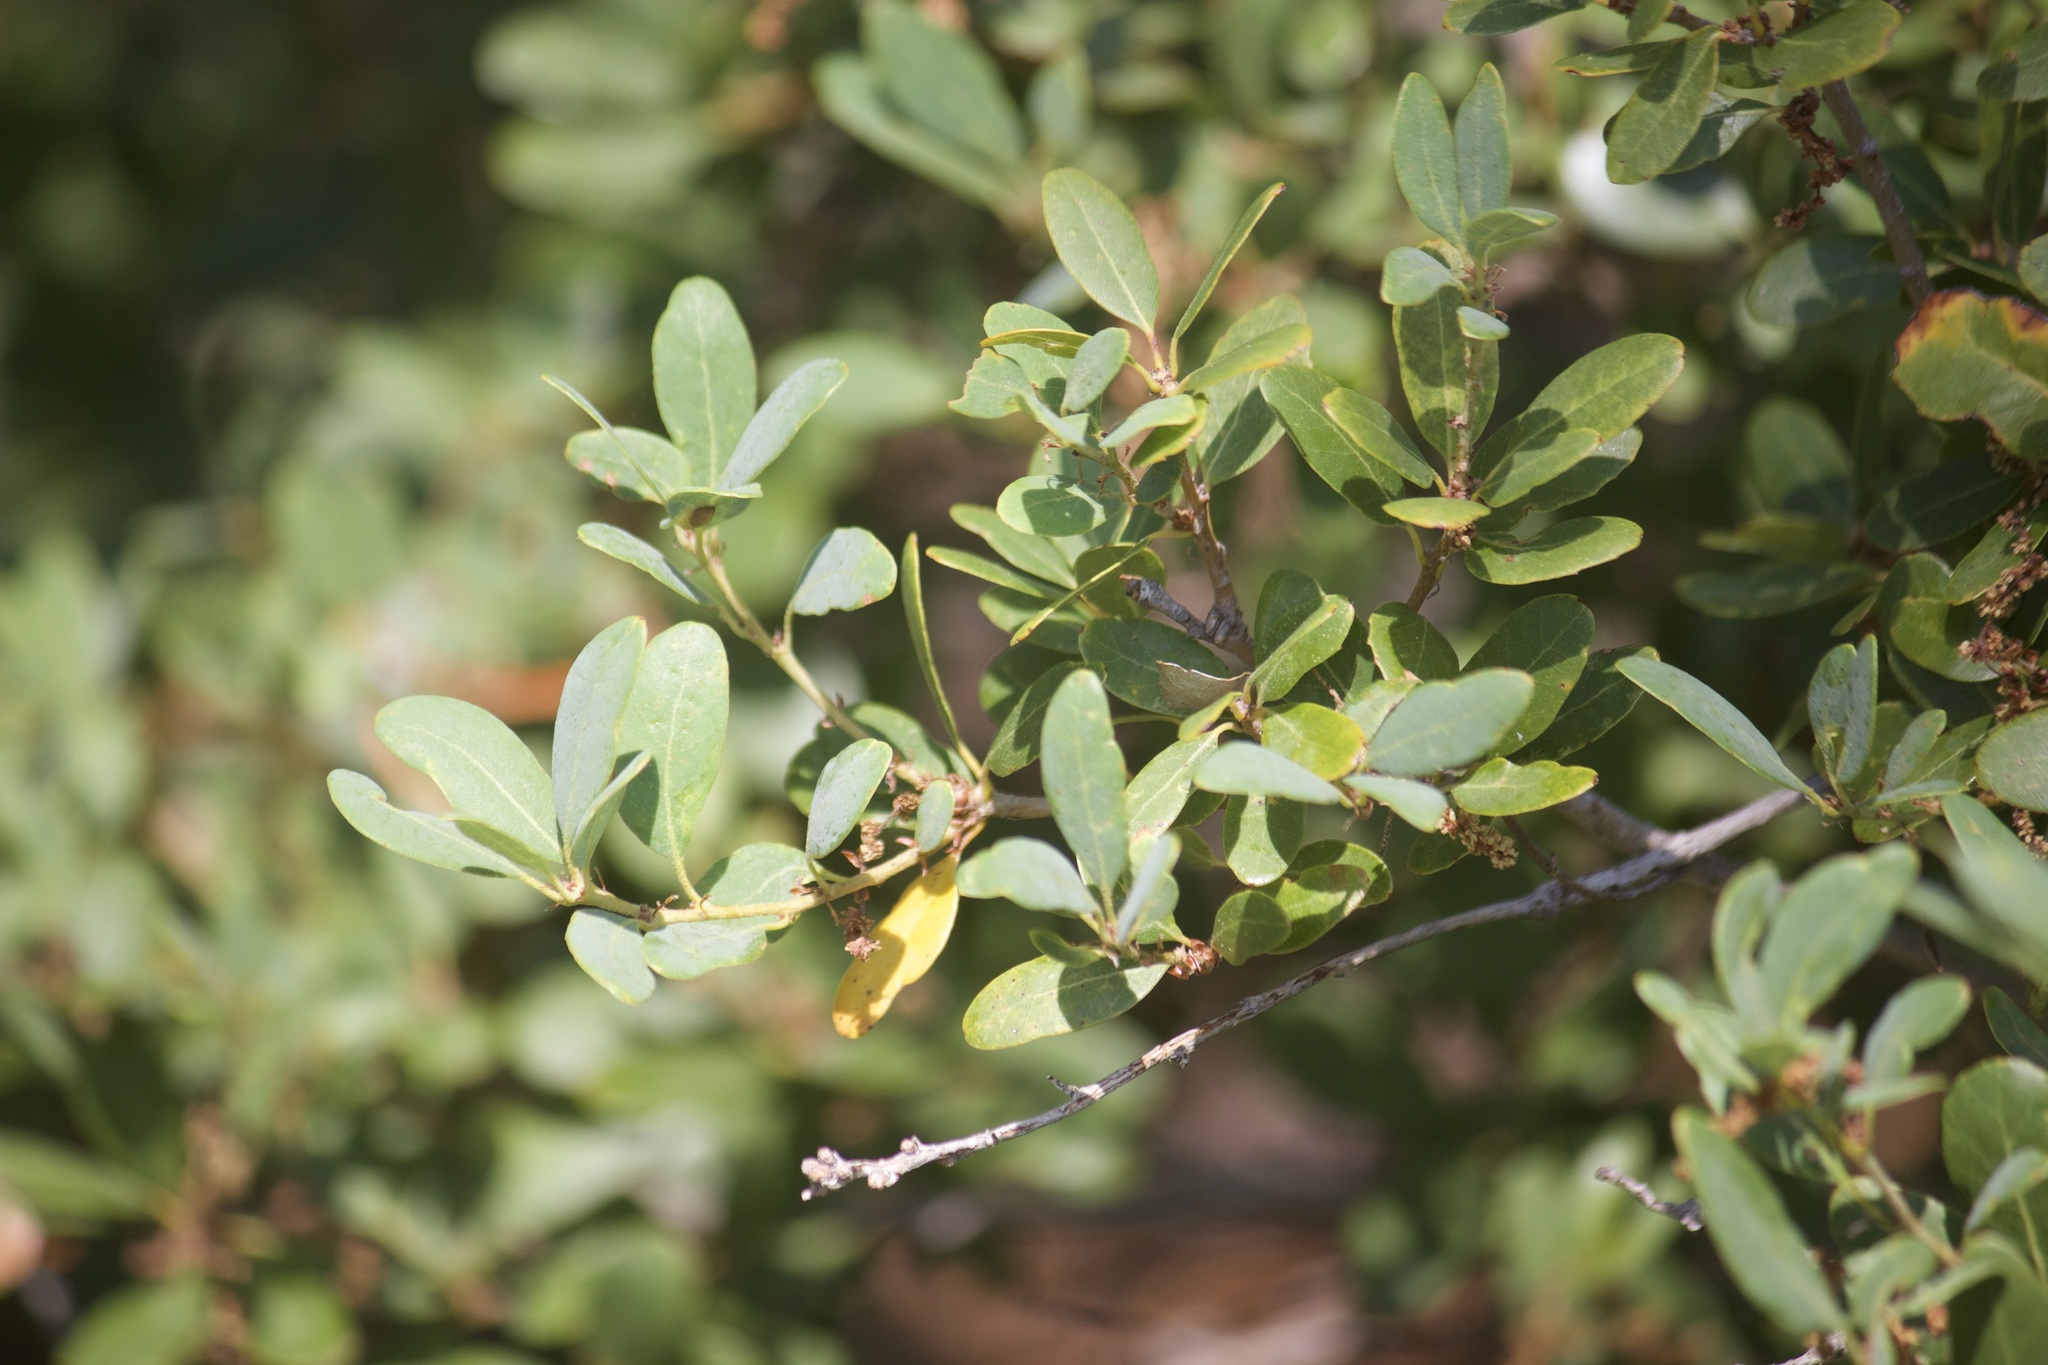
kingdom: Plantae
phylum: Tracheophyta
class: Magnoliopsida
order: Fagales
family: Fagaceae
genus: Quercus
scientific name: Quercus vacciniifolia
